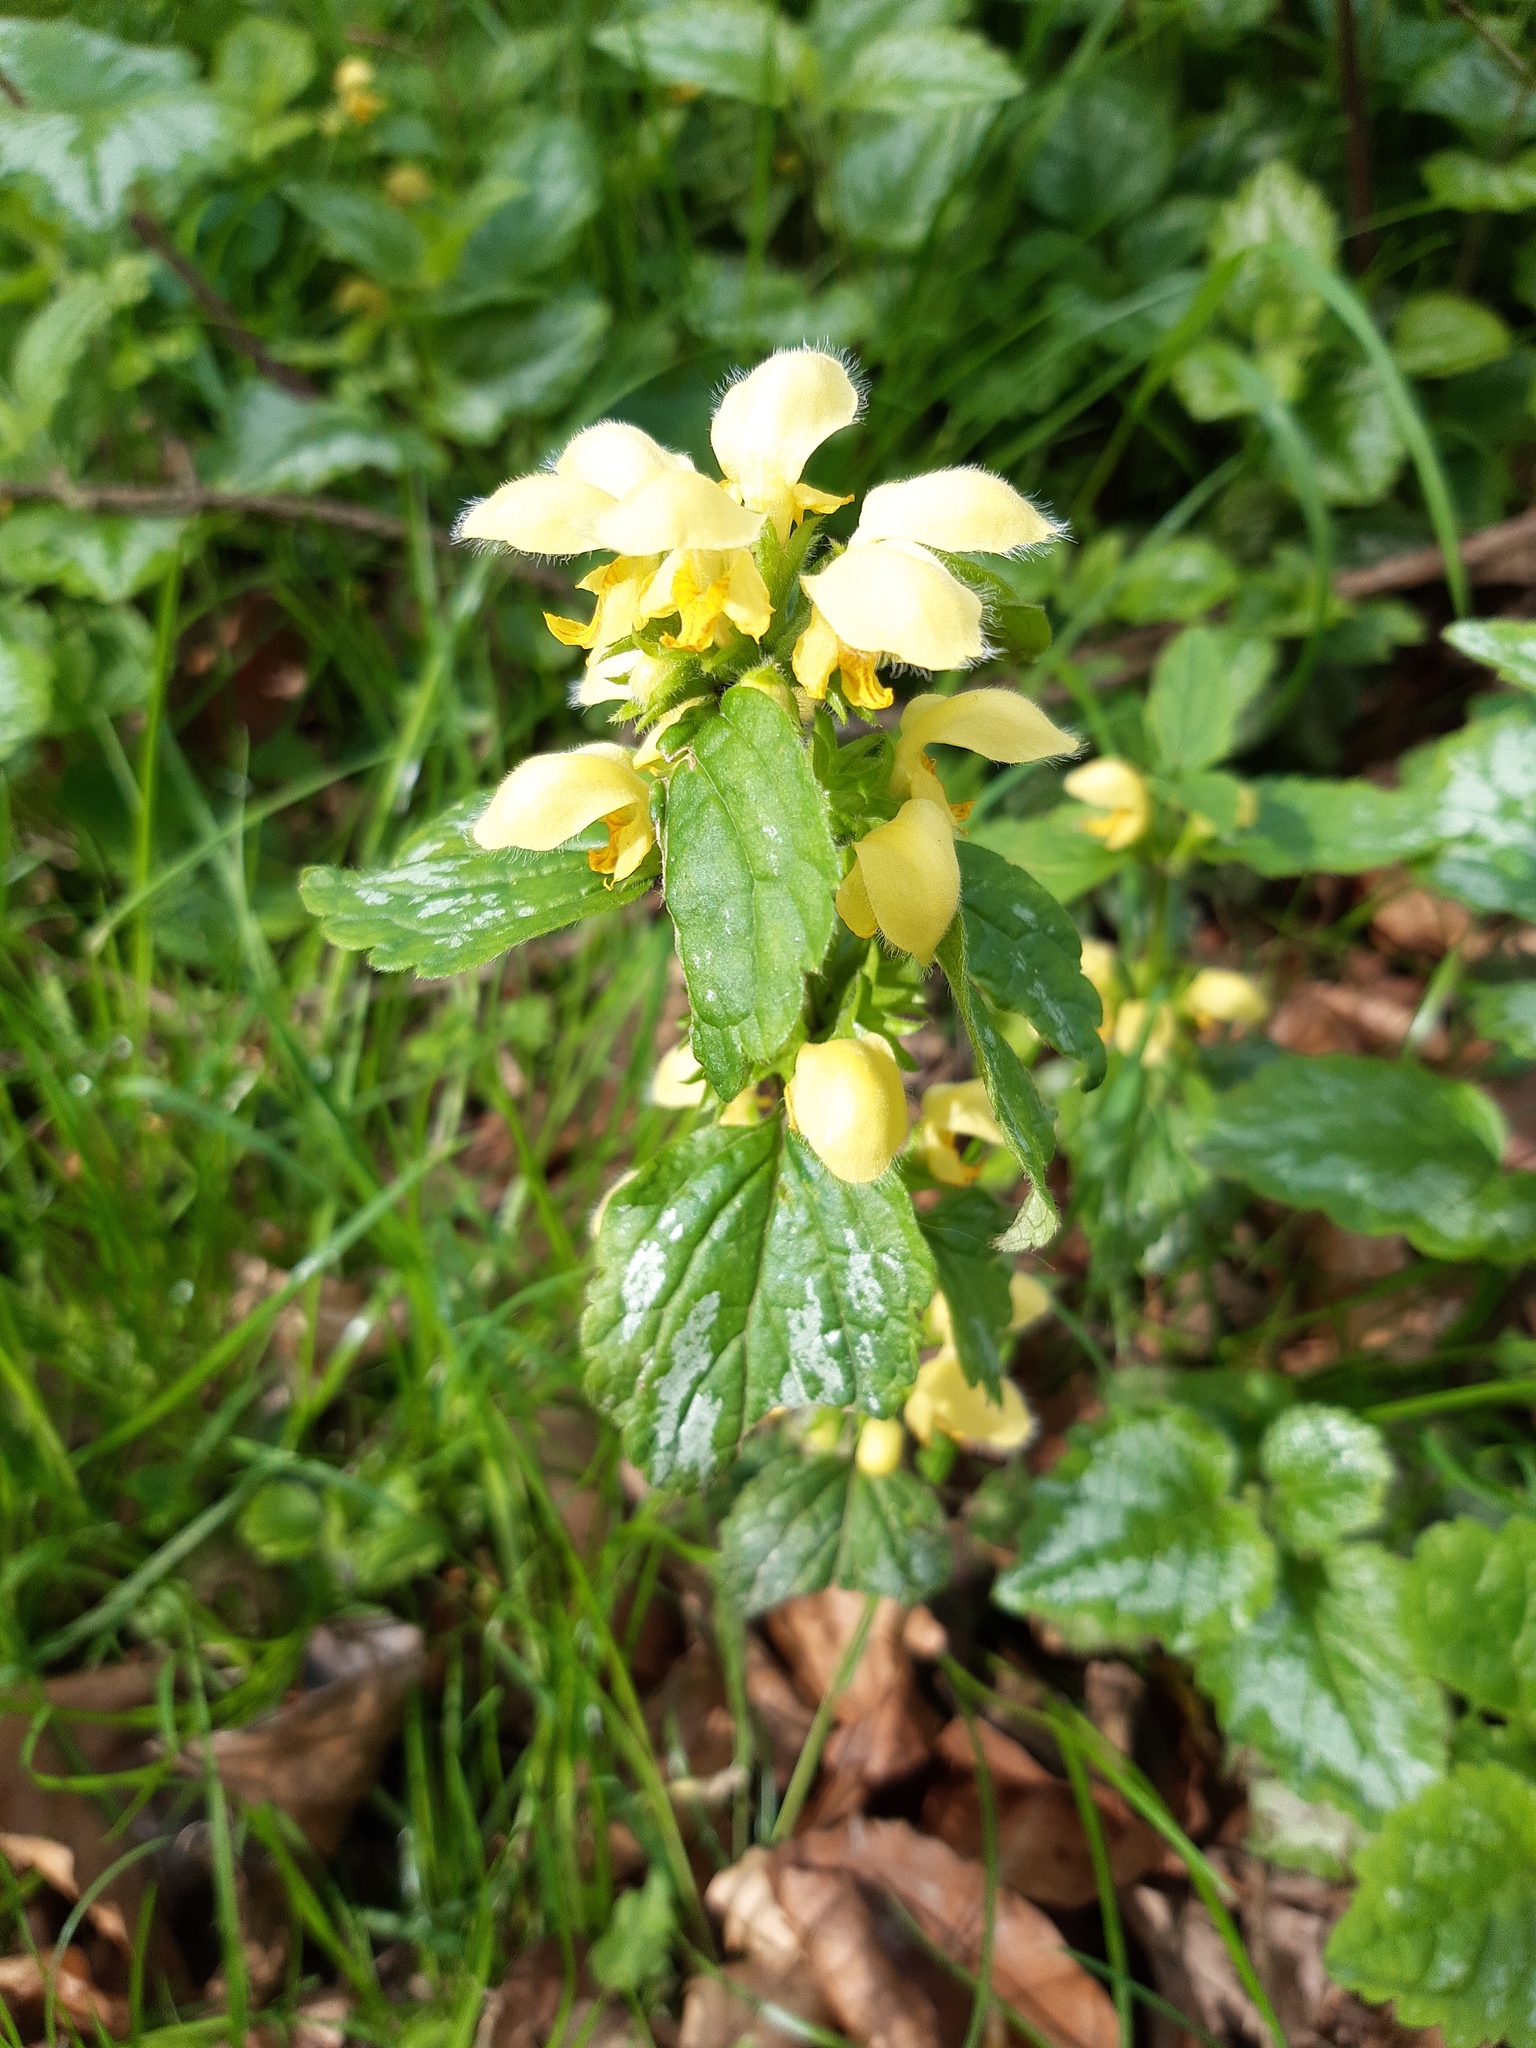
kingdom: Plantae
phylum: Tracheophyta
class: Magnoliopsida
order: Lamiales
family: Lamiaceae
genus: Lamium
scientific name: Lamium galeobdolon
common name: Yellow archangel
